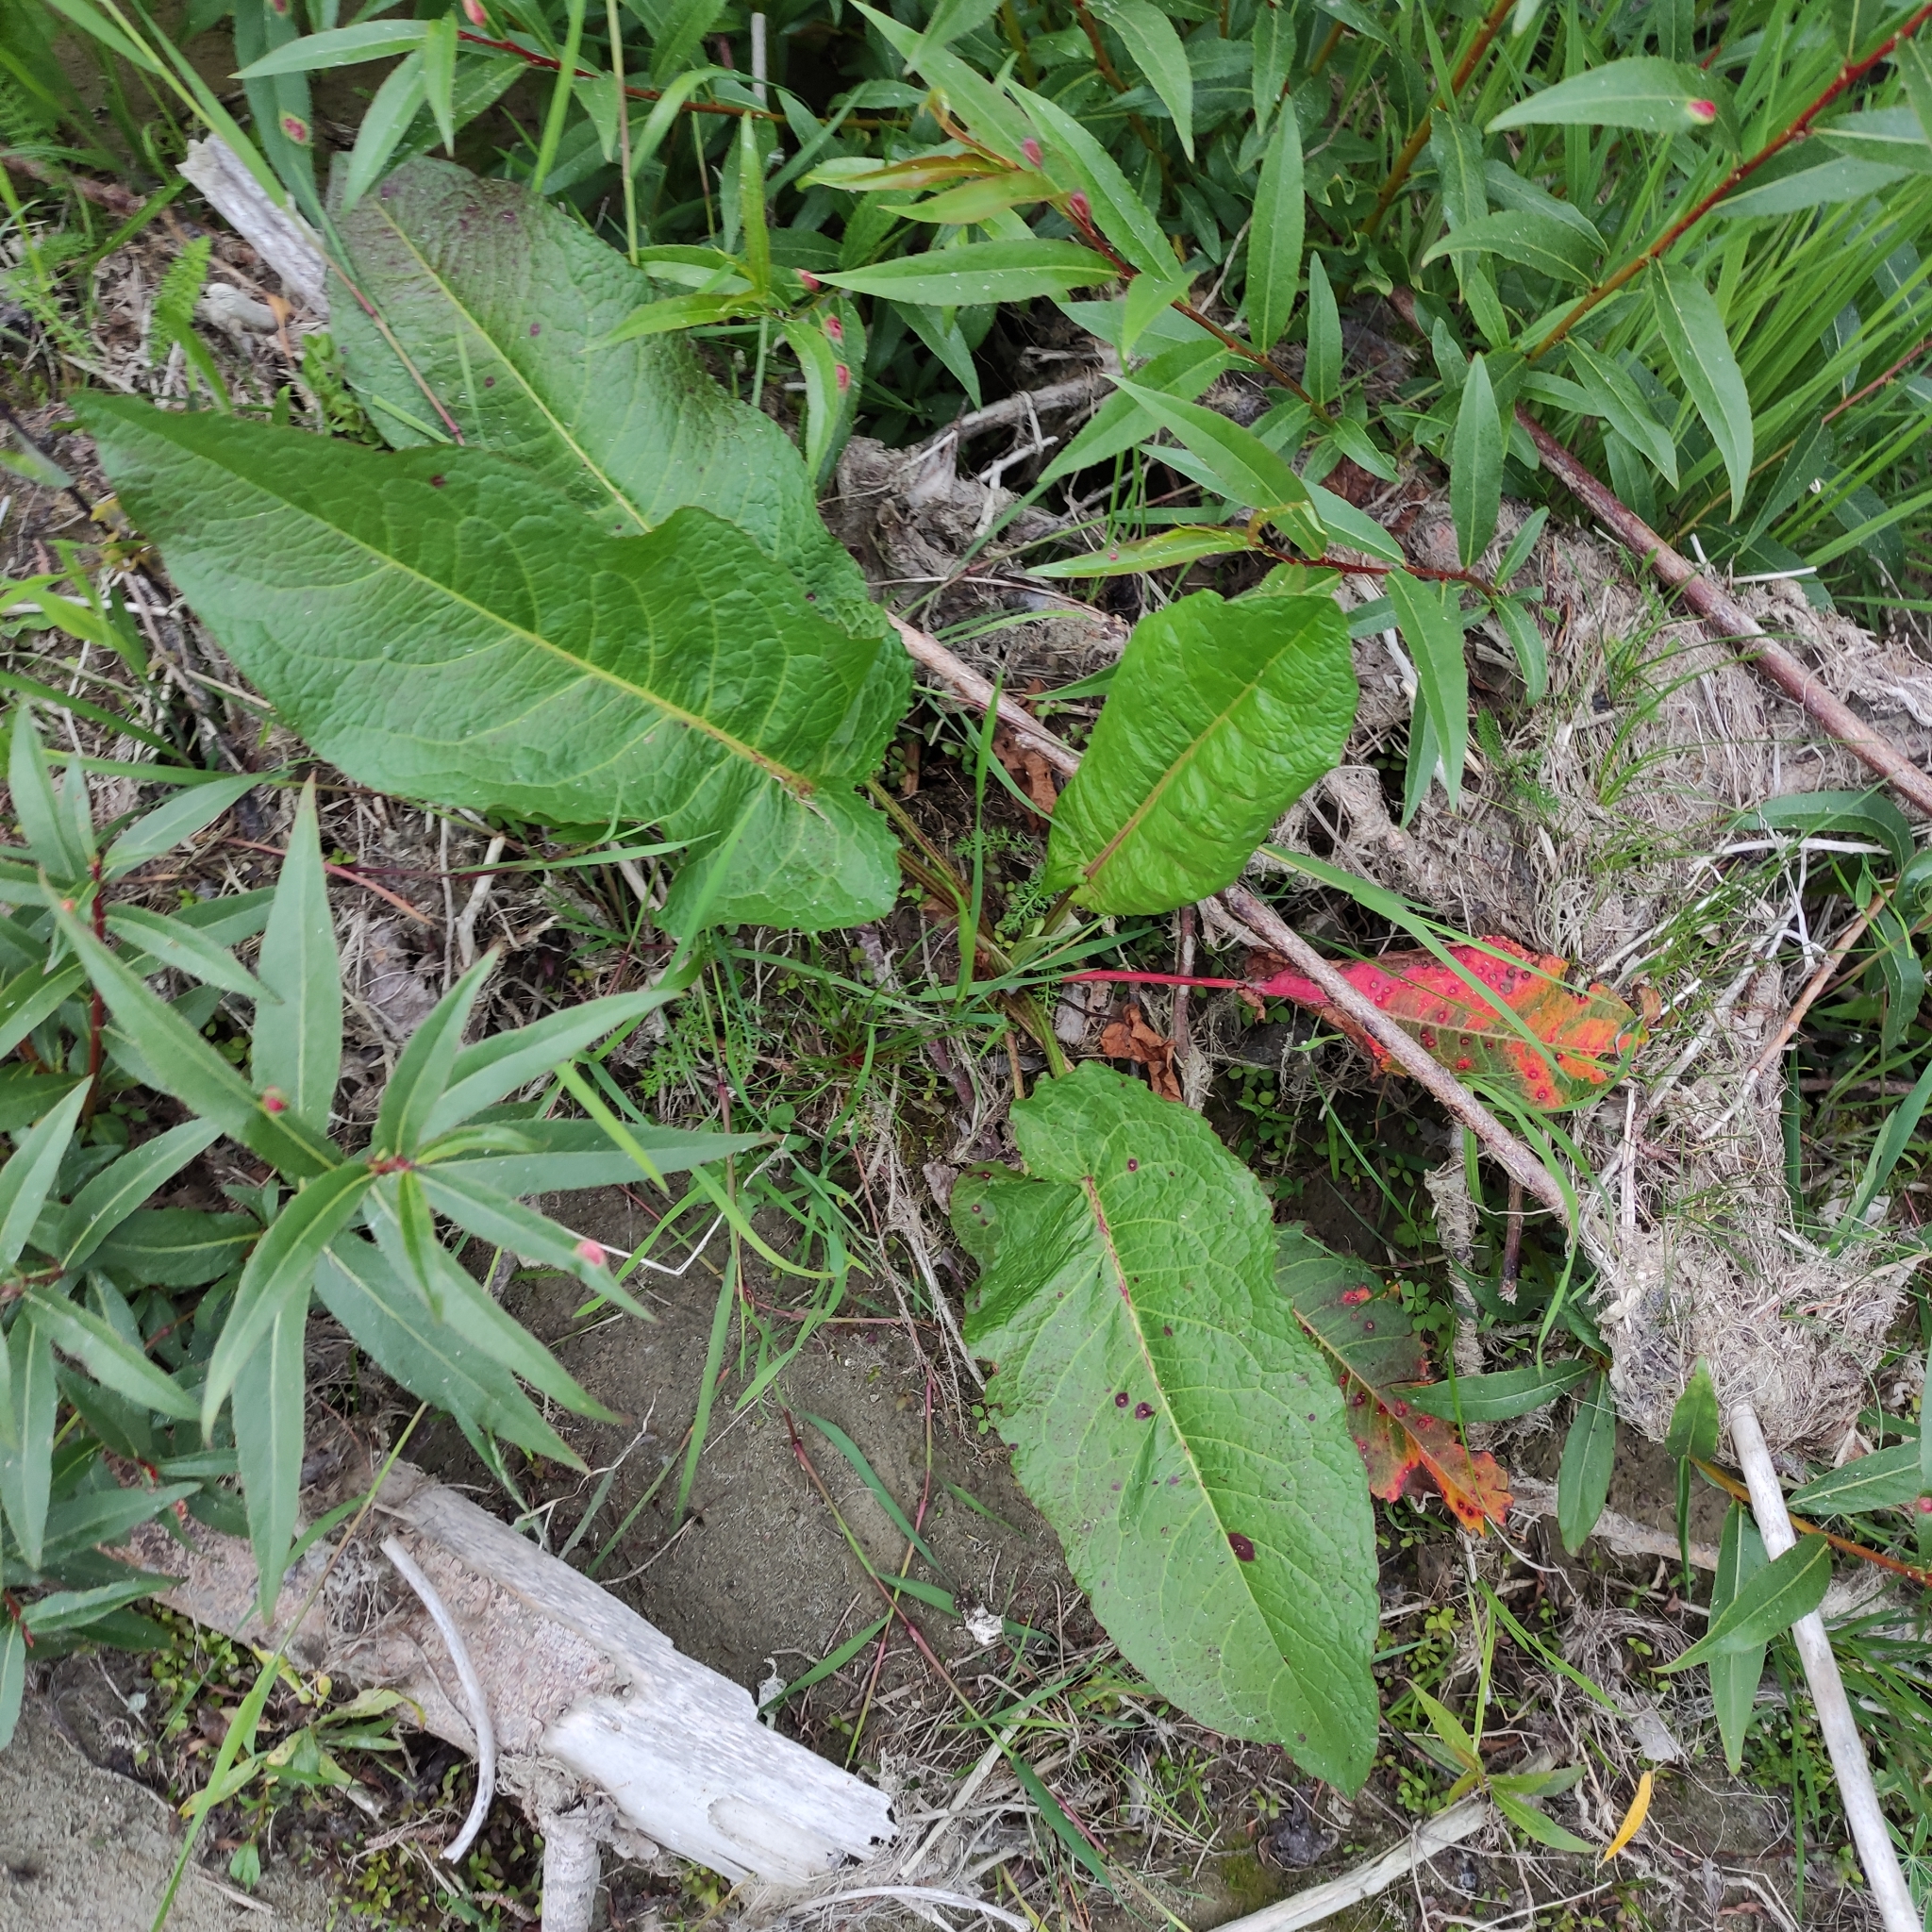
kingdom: Plantae
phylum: Tracheophyta
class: Magnoliopsida
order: Caryophyllales
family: Polygonaceae
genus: Rumex
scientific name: Rumex obtusifolius
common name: Bitter dock
